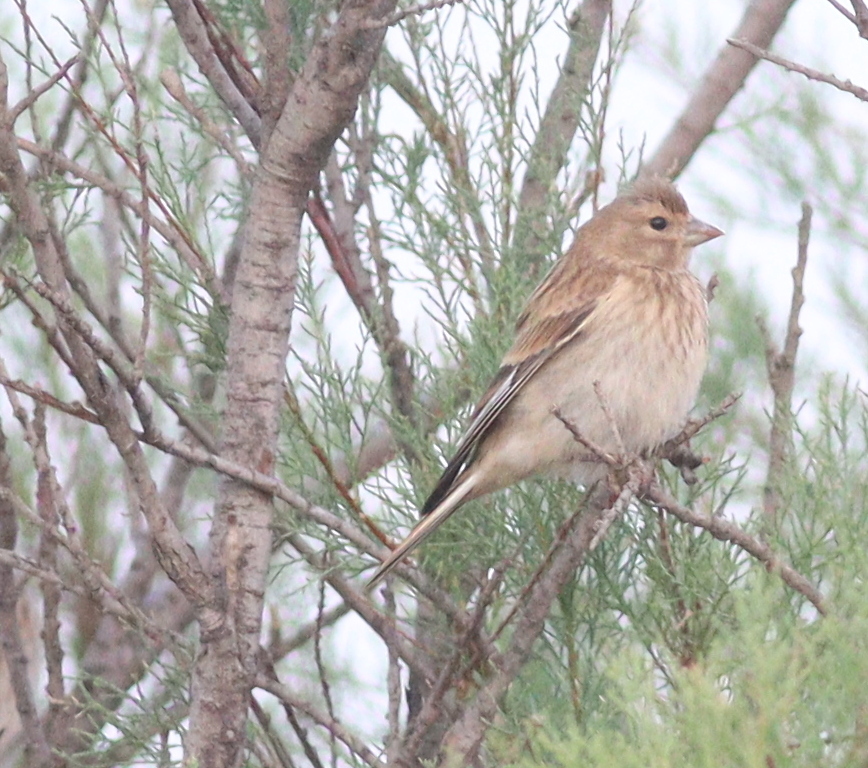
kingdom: Animalia
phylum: Chordata
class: Aves
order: Passeriformes
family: Fringillidae
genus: Linaria
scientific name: Linaria cannabina
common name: Common linnet
